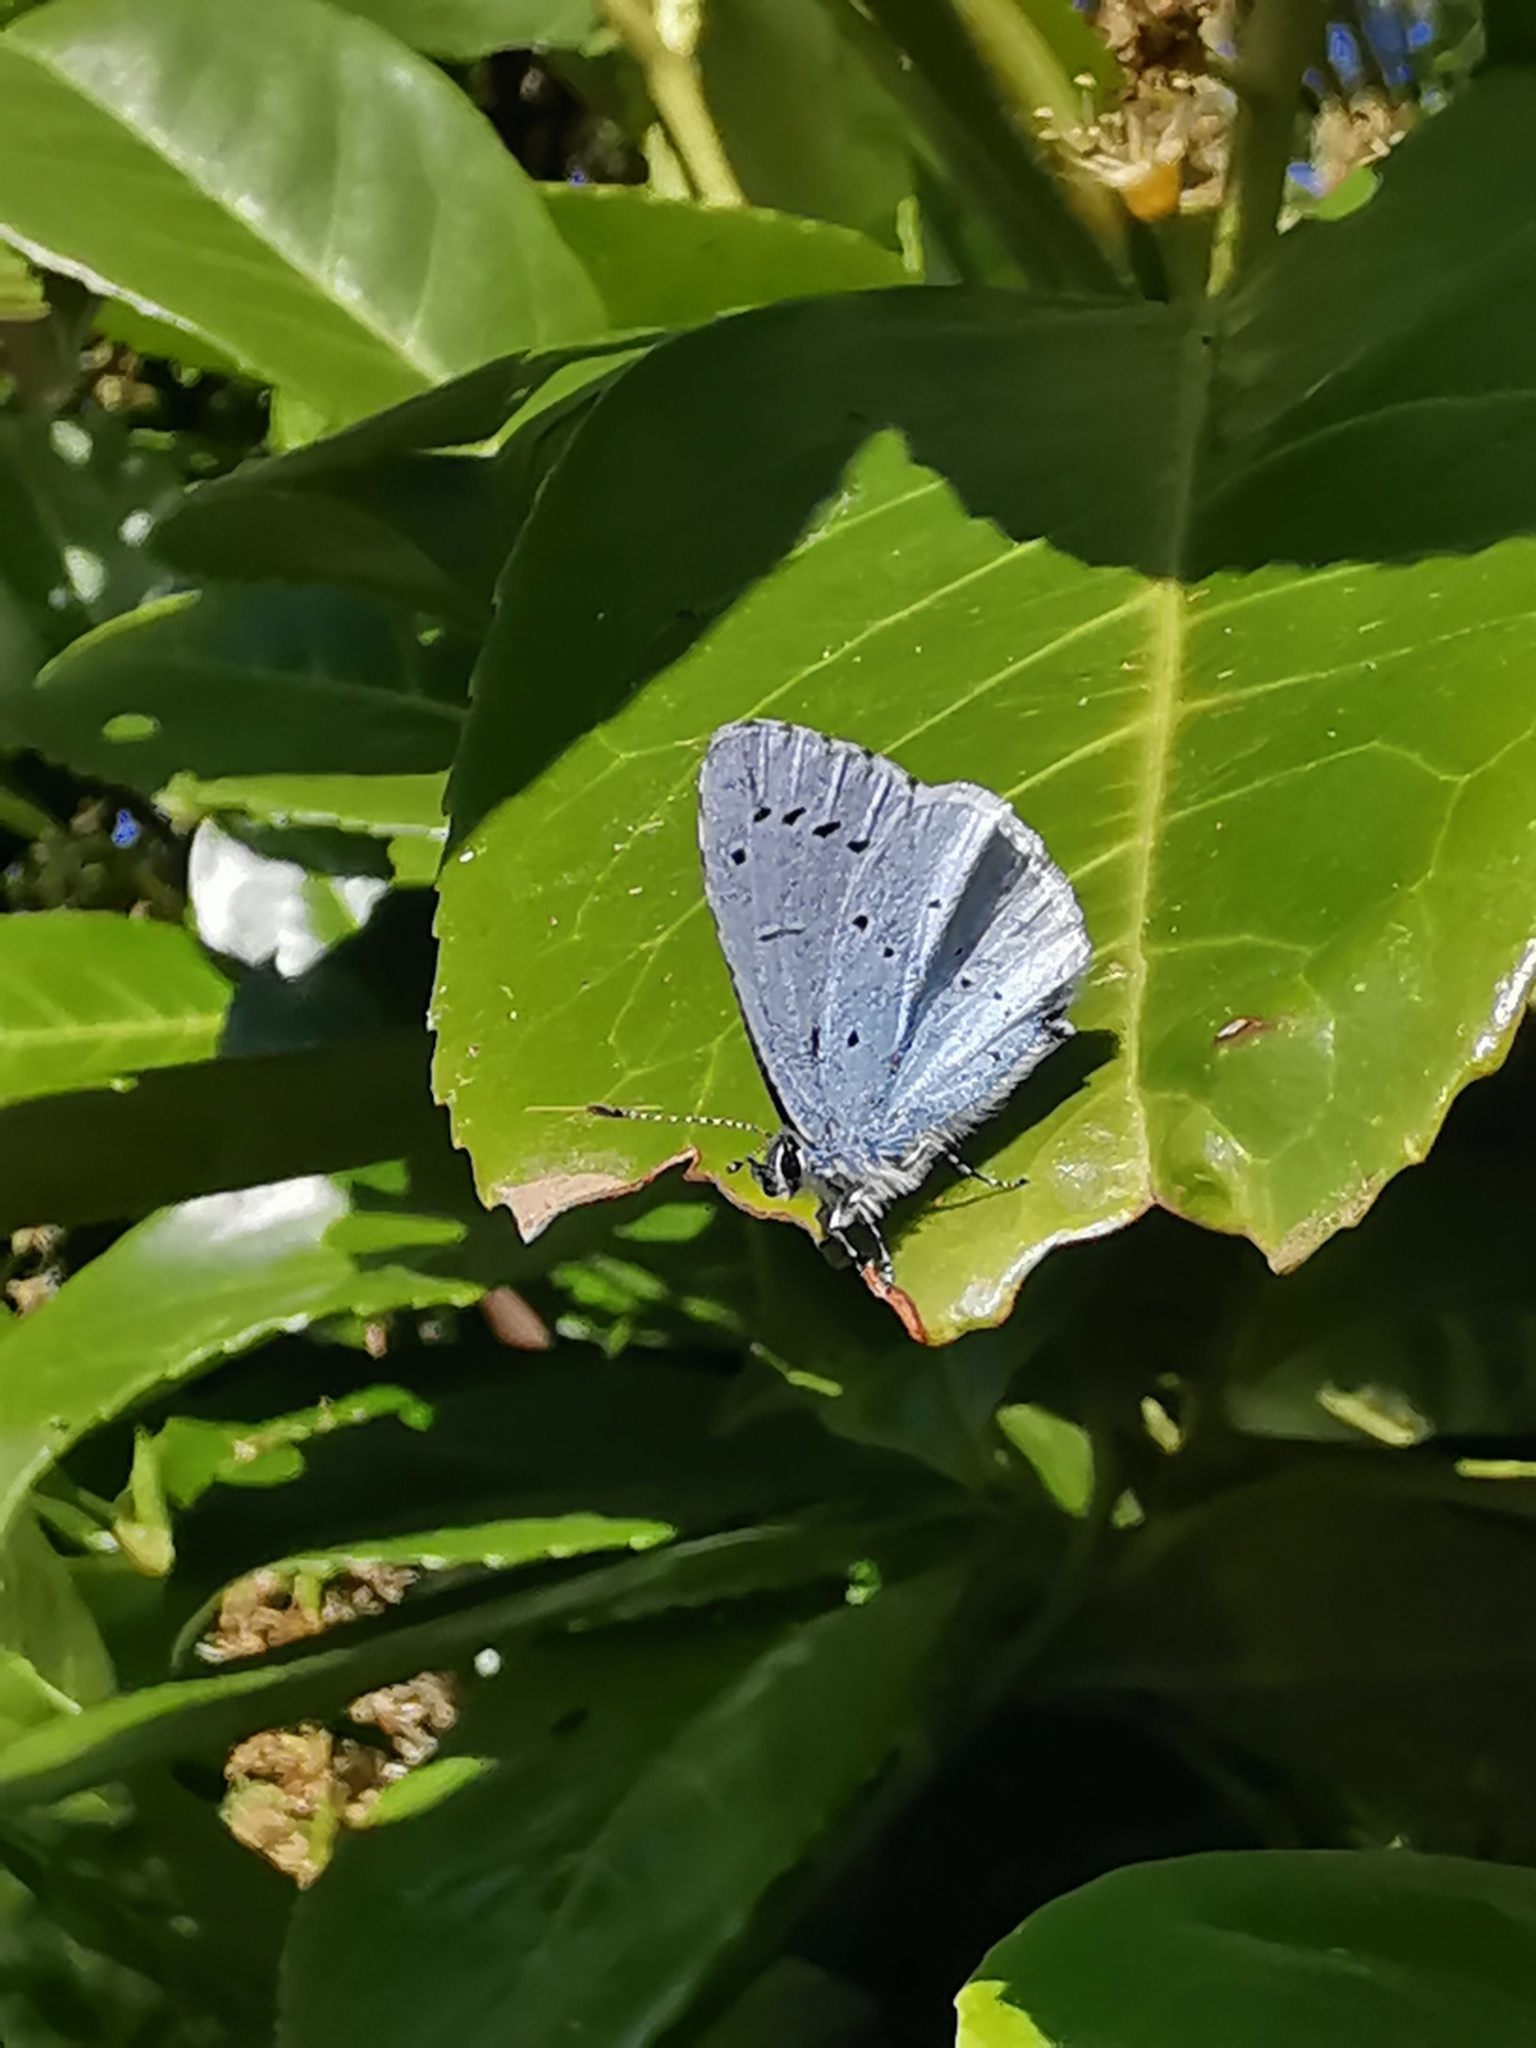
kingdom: Animalia
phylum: Arthropoda
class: Insecta
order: Lepidoptera
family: Lycaenidae
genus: Celastrina
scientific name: Celastrina argiolus
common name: Holly blue
